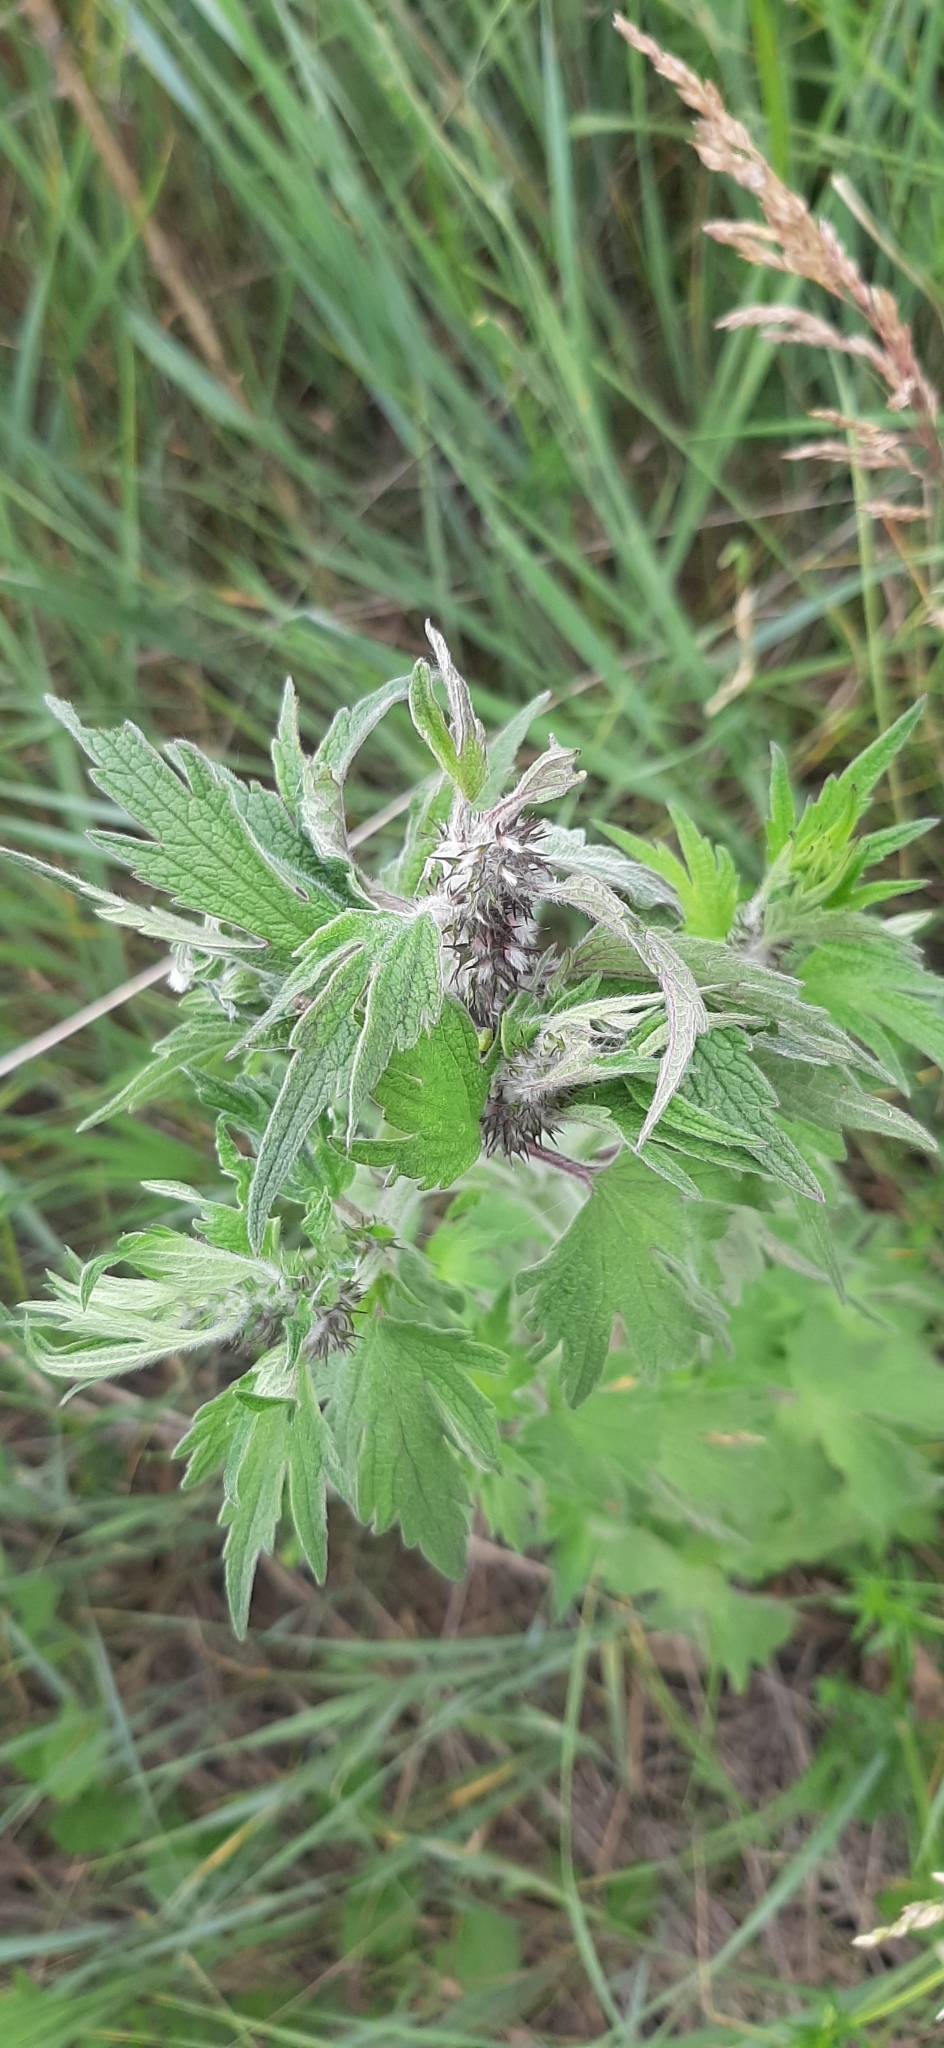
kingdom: Plantae
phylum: Tracheophyta
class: Magnoliopsida
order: Lamiales
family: Lamiaceae
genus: Leonurus
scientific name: Leonurus quinquelobatus
